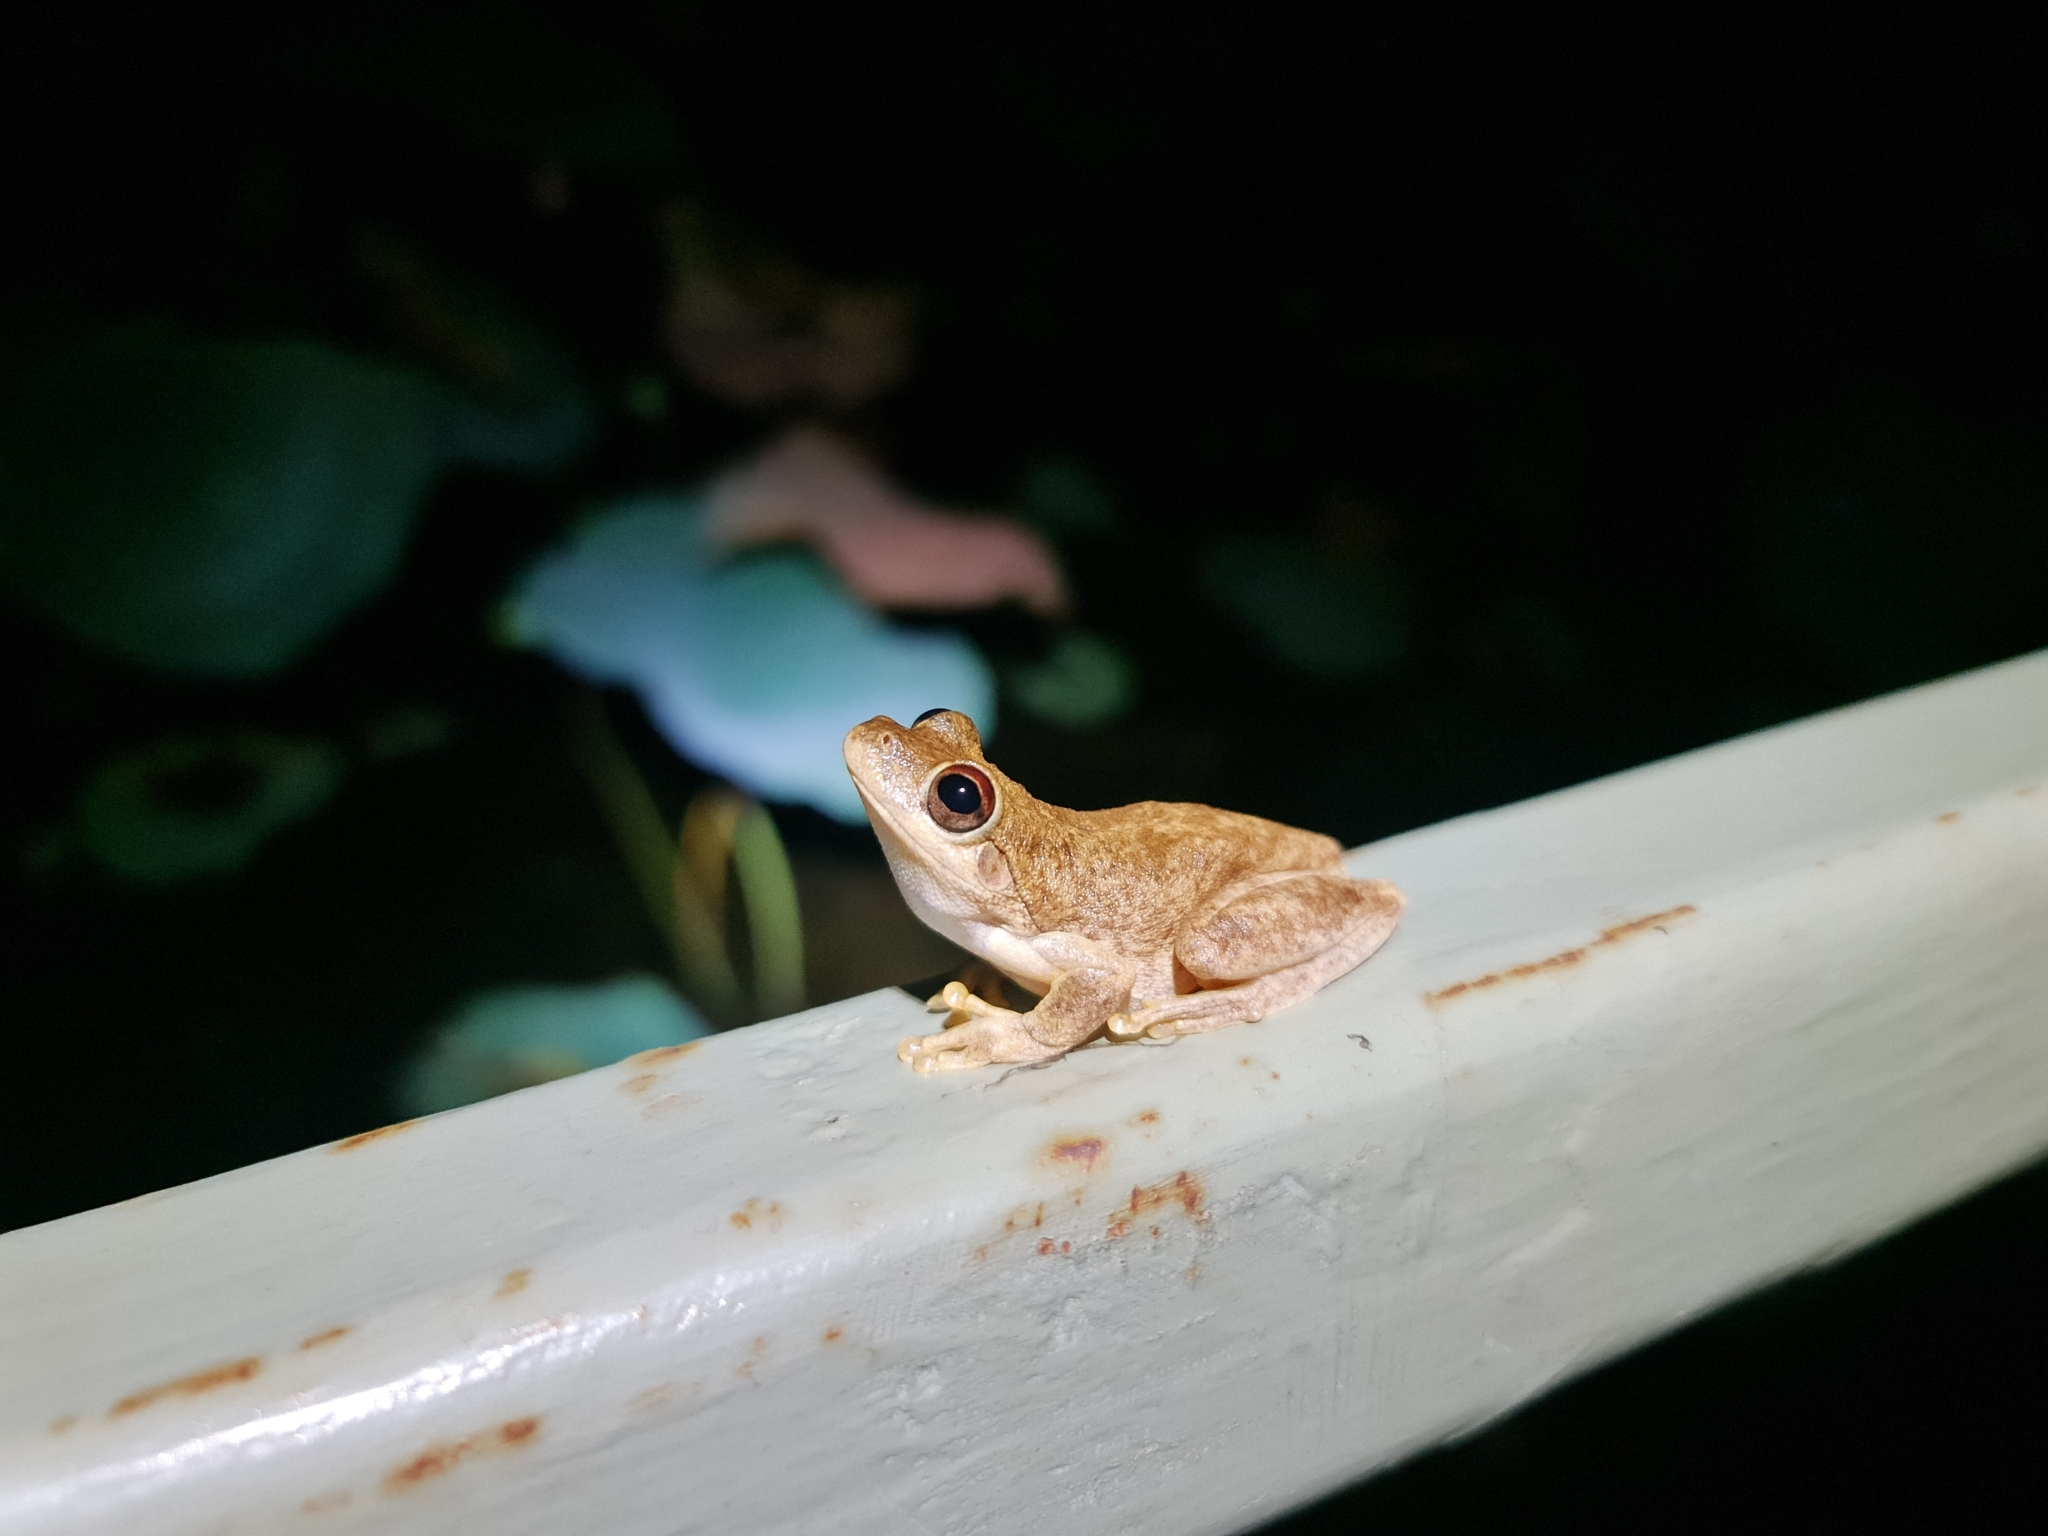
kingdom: Animalia
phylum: Chordata
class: Amphibia
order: Anura
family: Pelodryadidae
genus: Litoria
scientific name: Litoria
